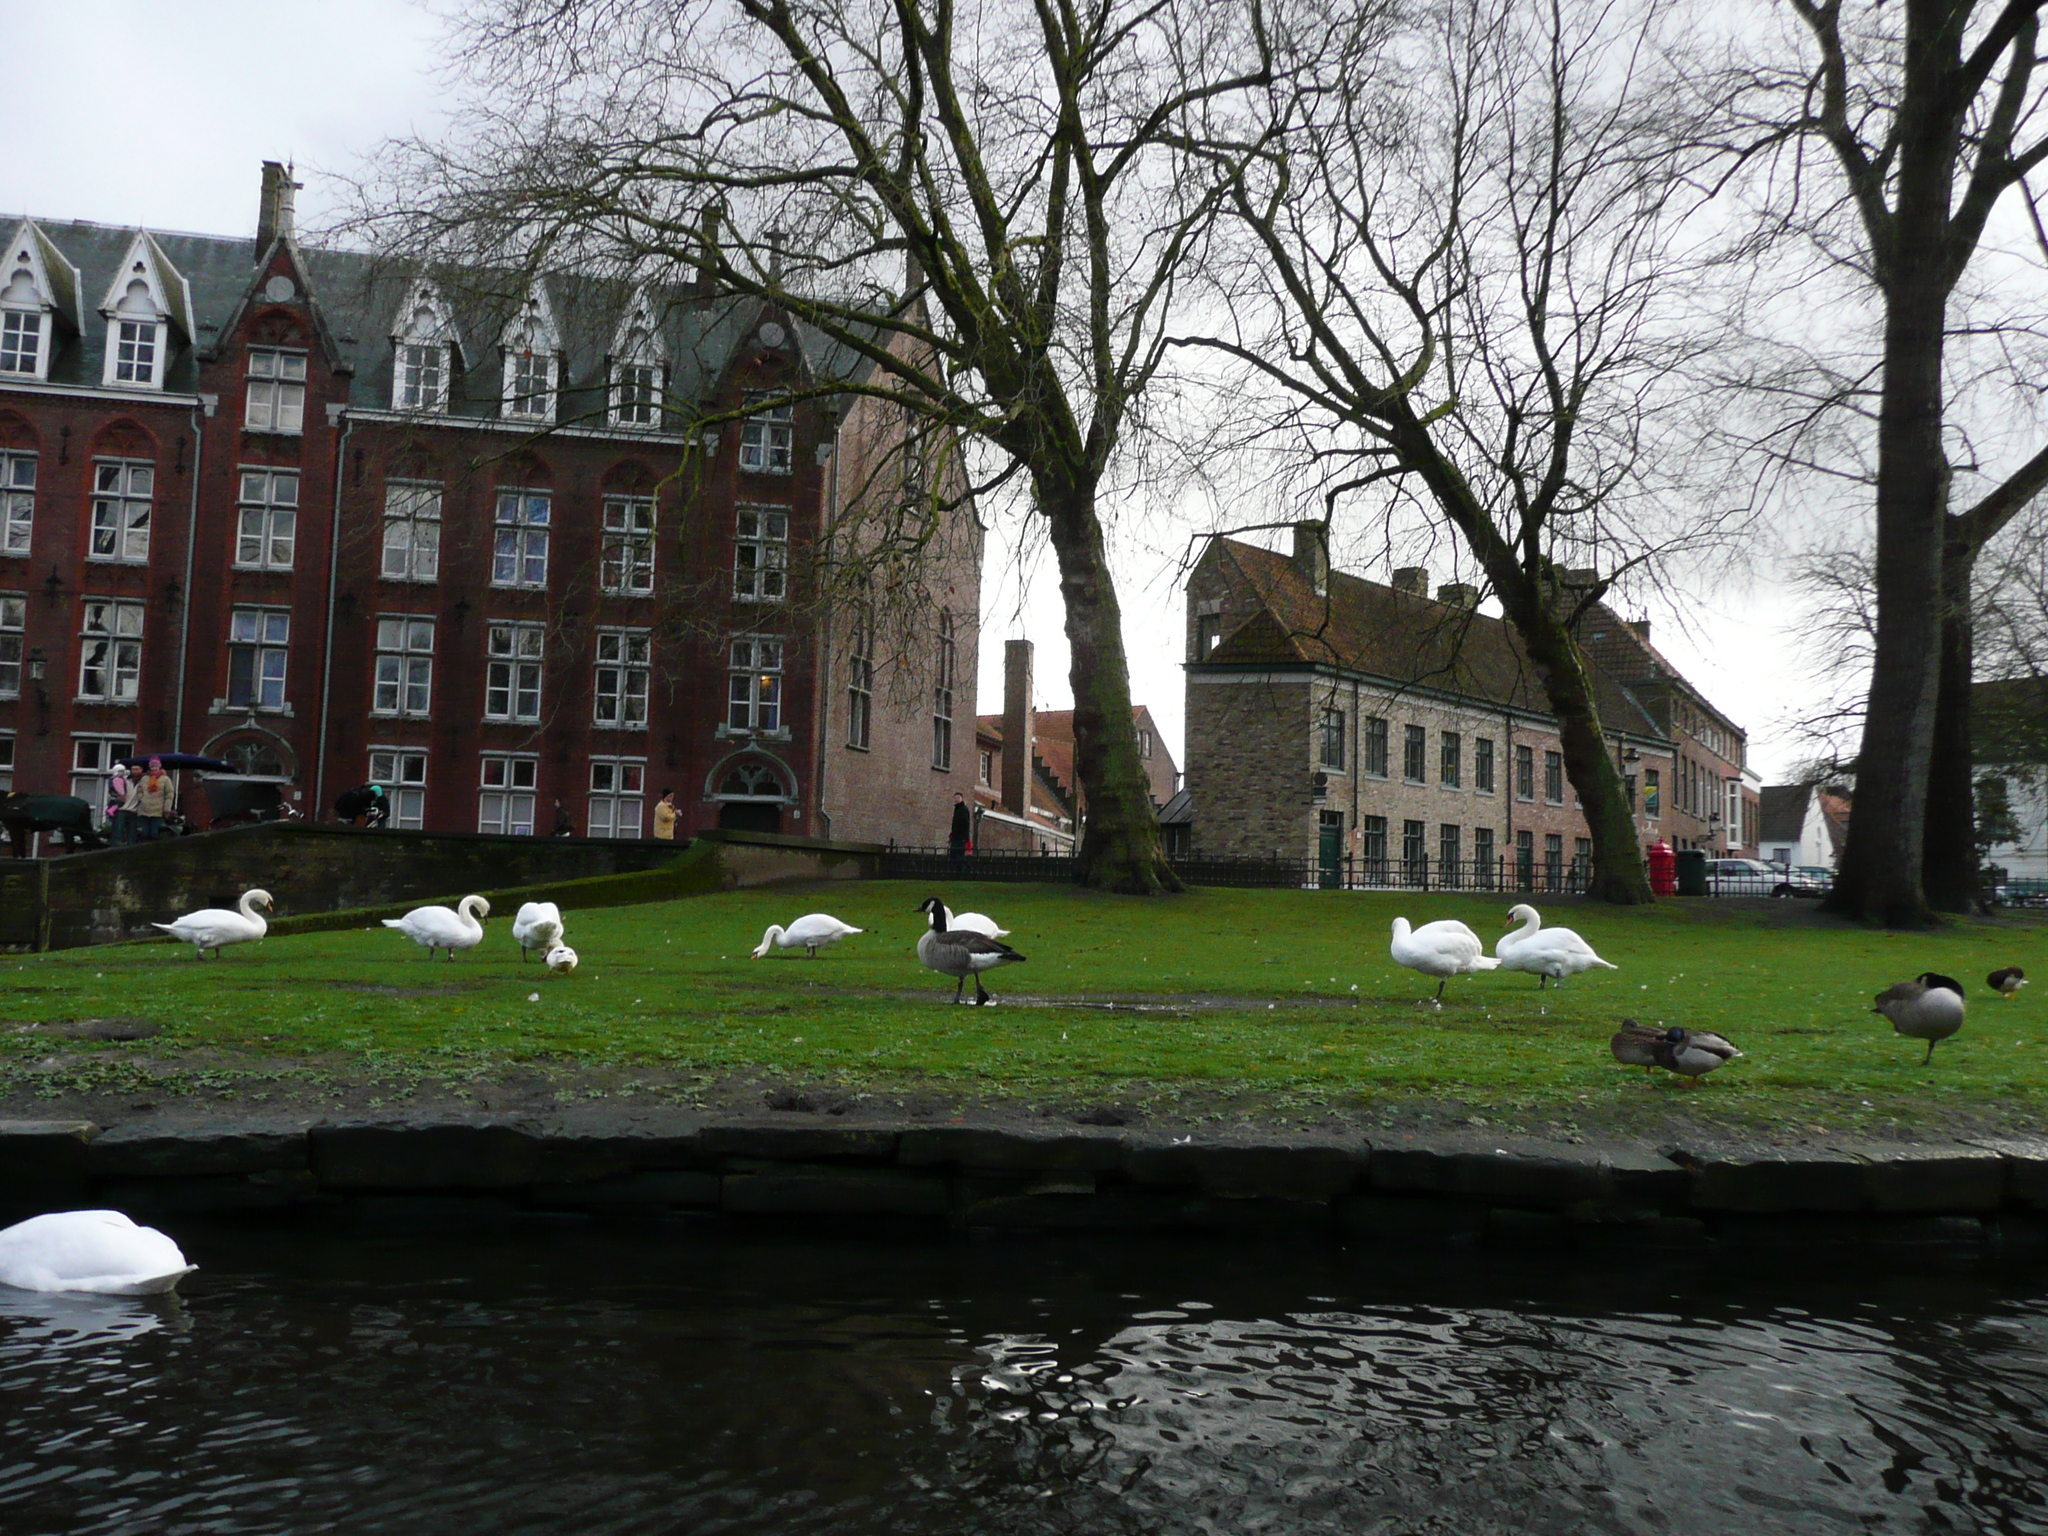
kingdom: Animalia
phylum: Chordata
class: Aves
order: Anseriformes
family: Anatidae
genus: Branta
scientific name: Branta canadensis
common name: Canada goose
